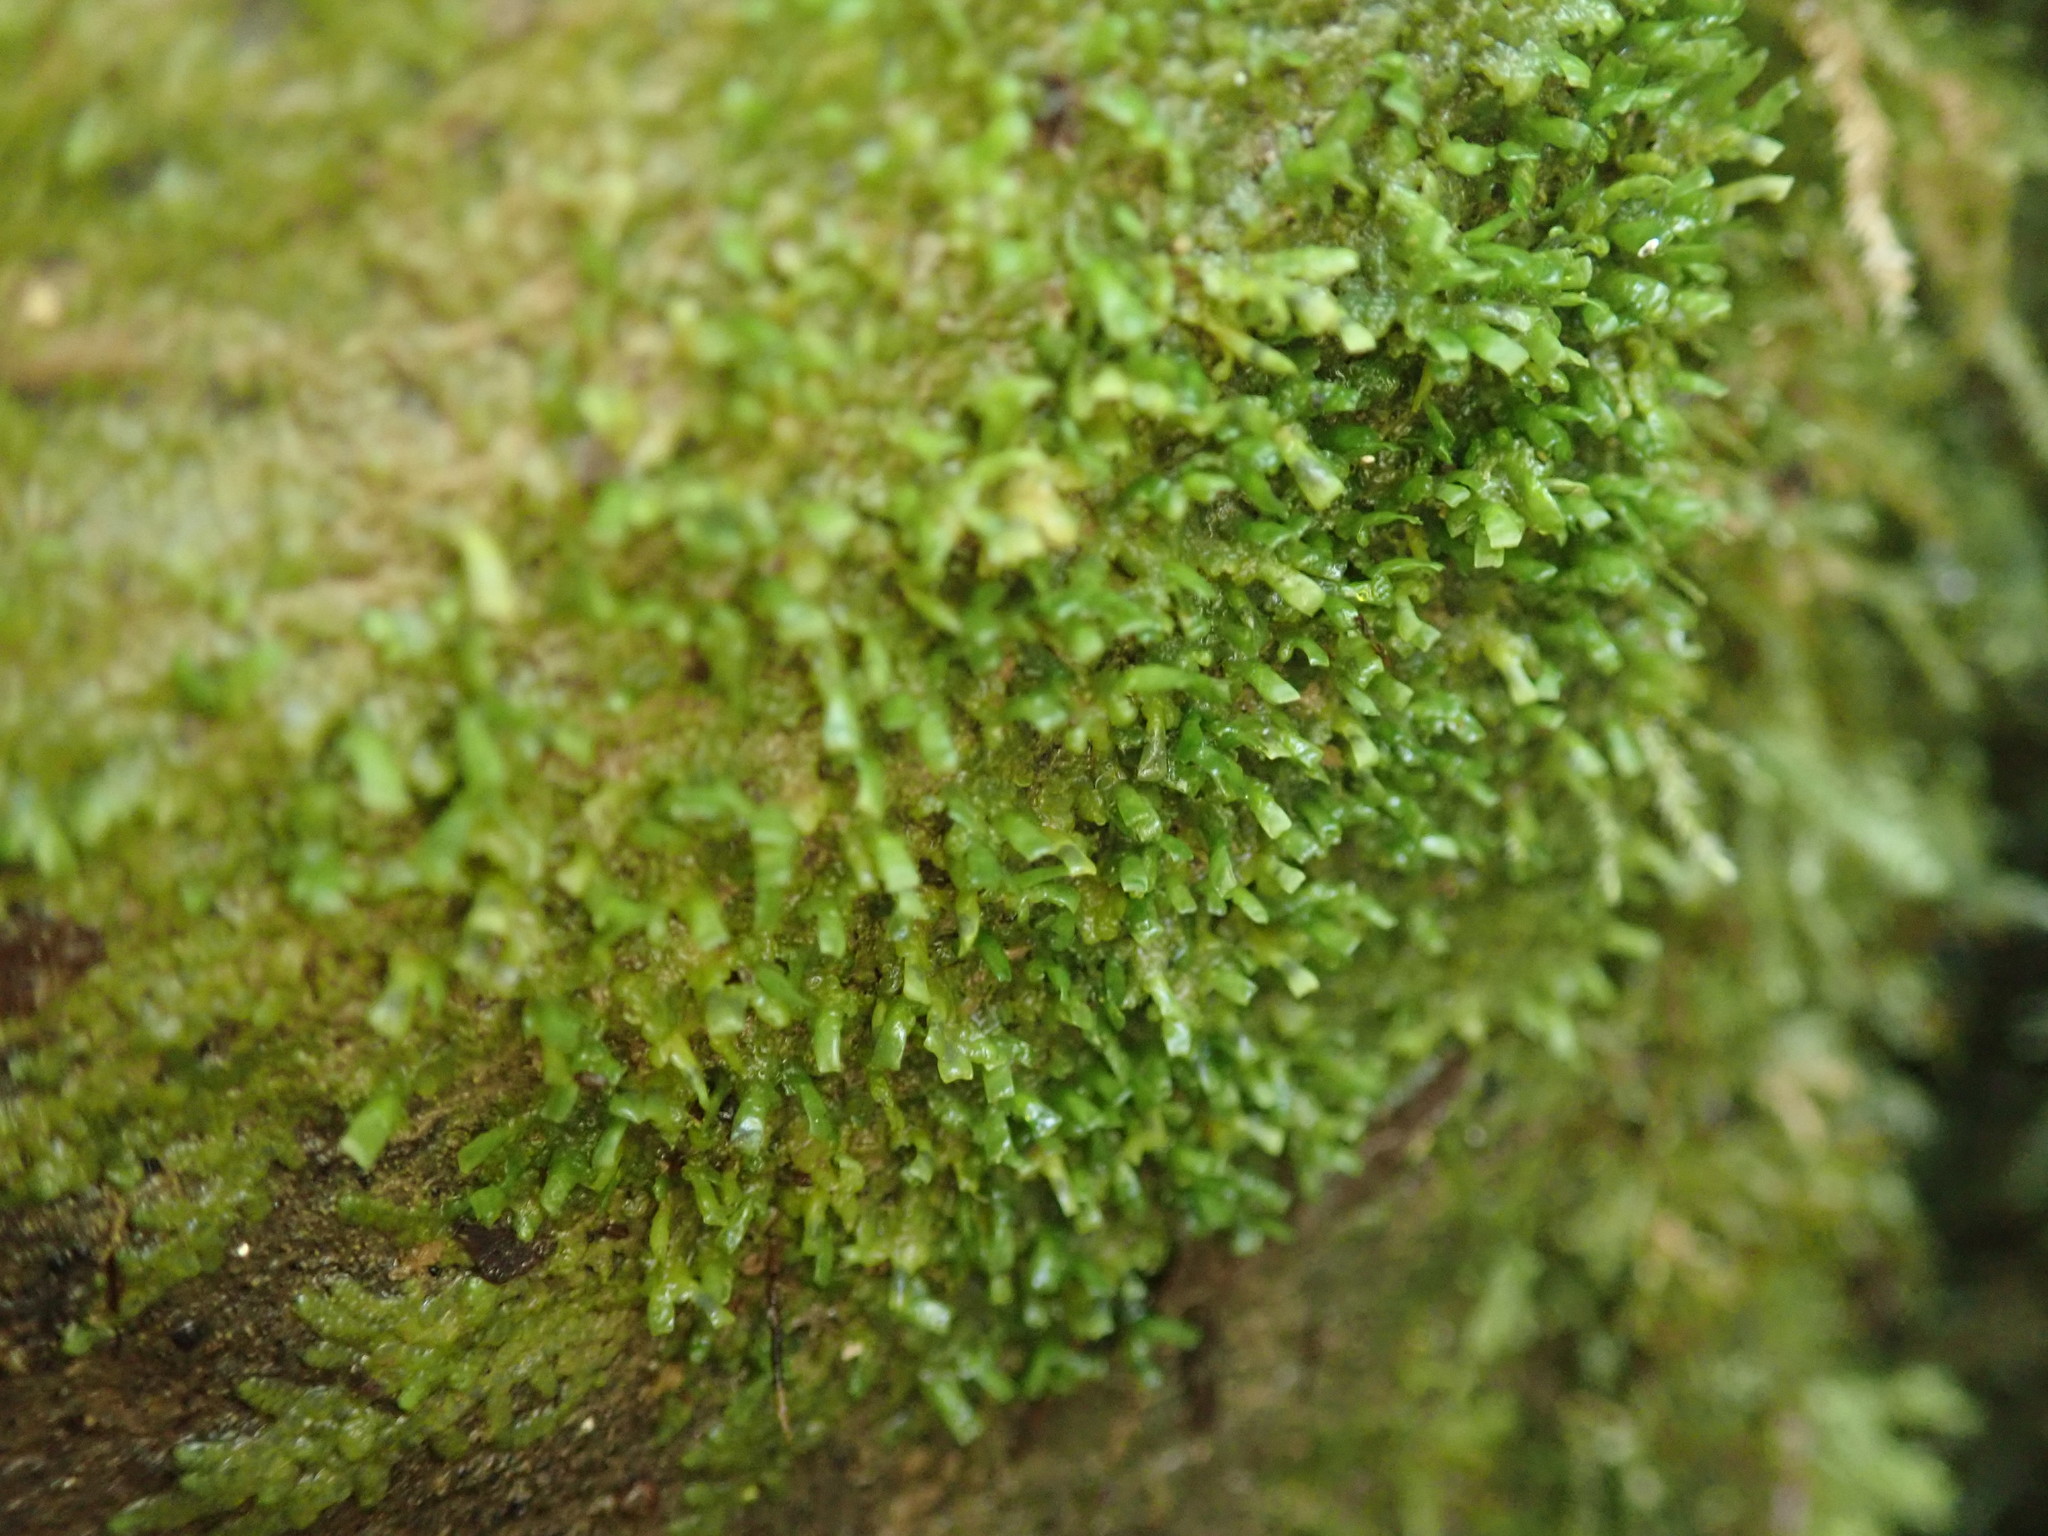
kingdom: Plantae
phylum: Marchantiophyta
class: Jungermanniopsida
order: Porellales
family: Radulaceae
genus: Radula
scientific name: Radula complanata
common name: Flat-leaved scalewort
